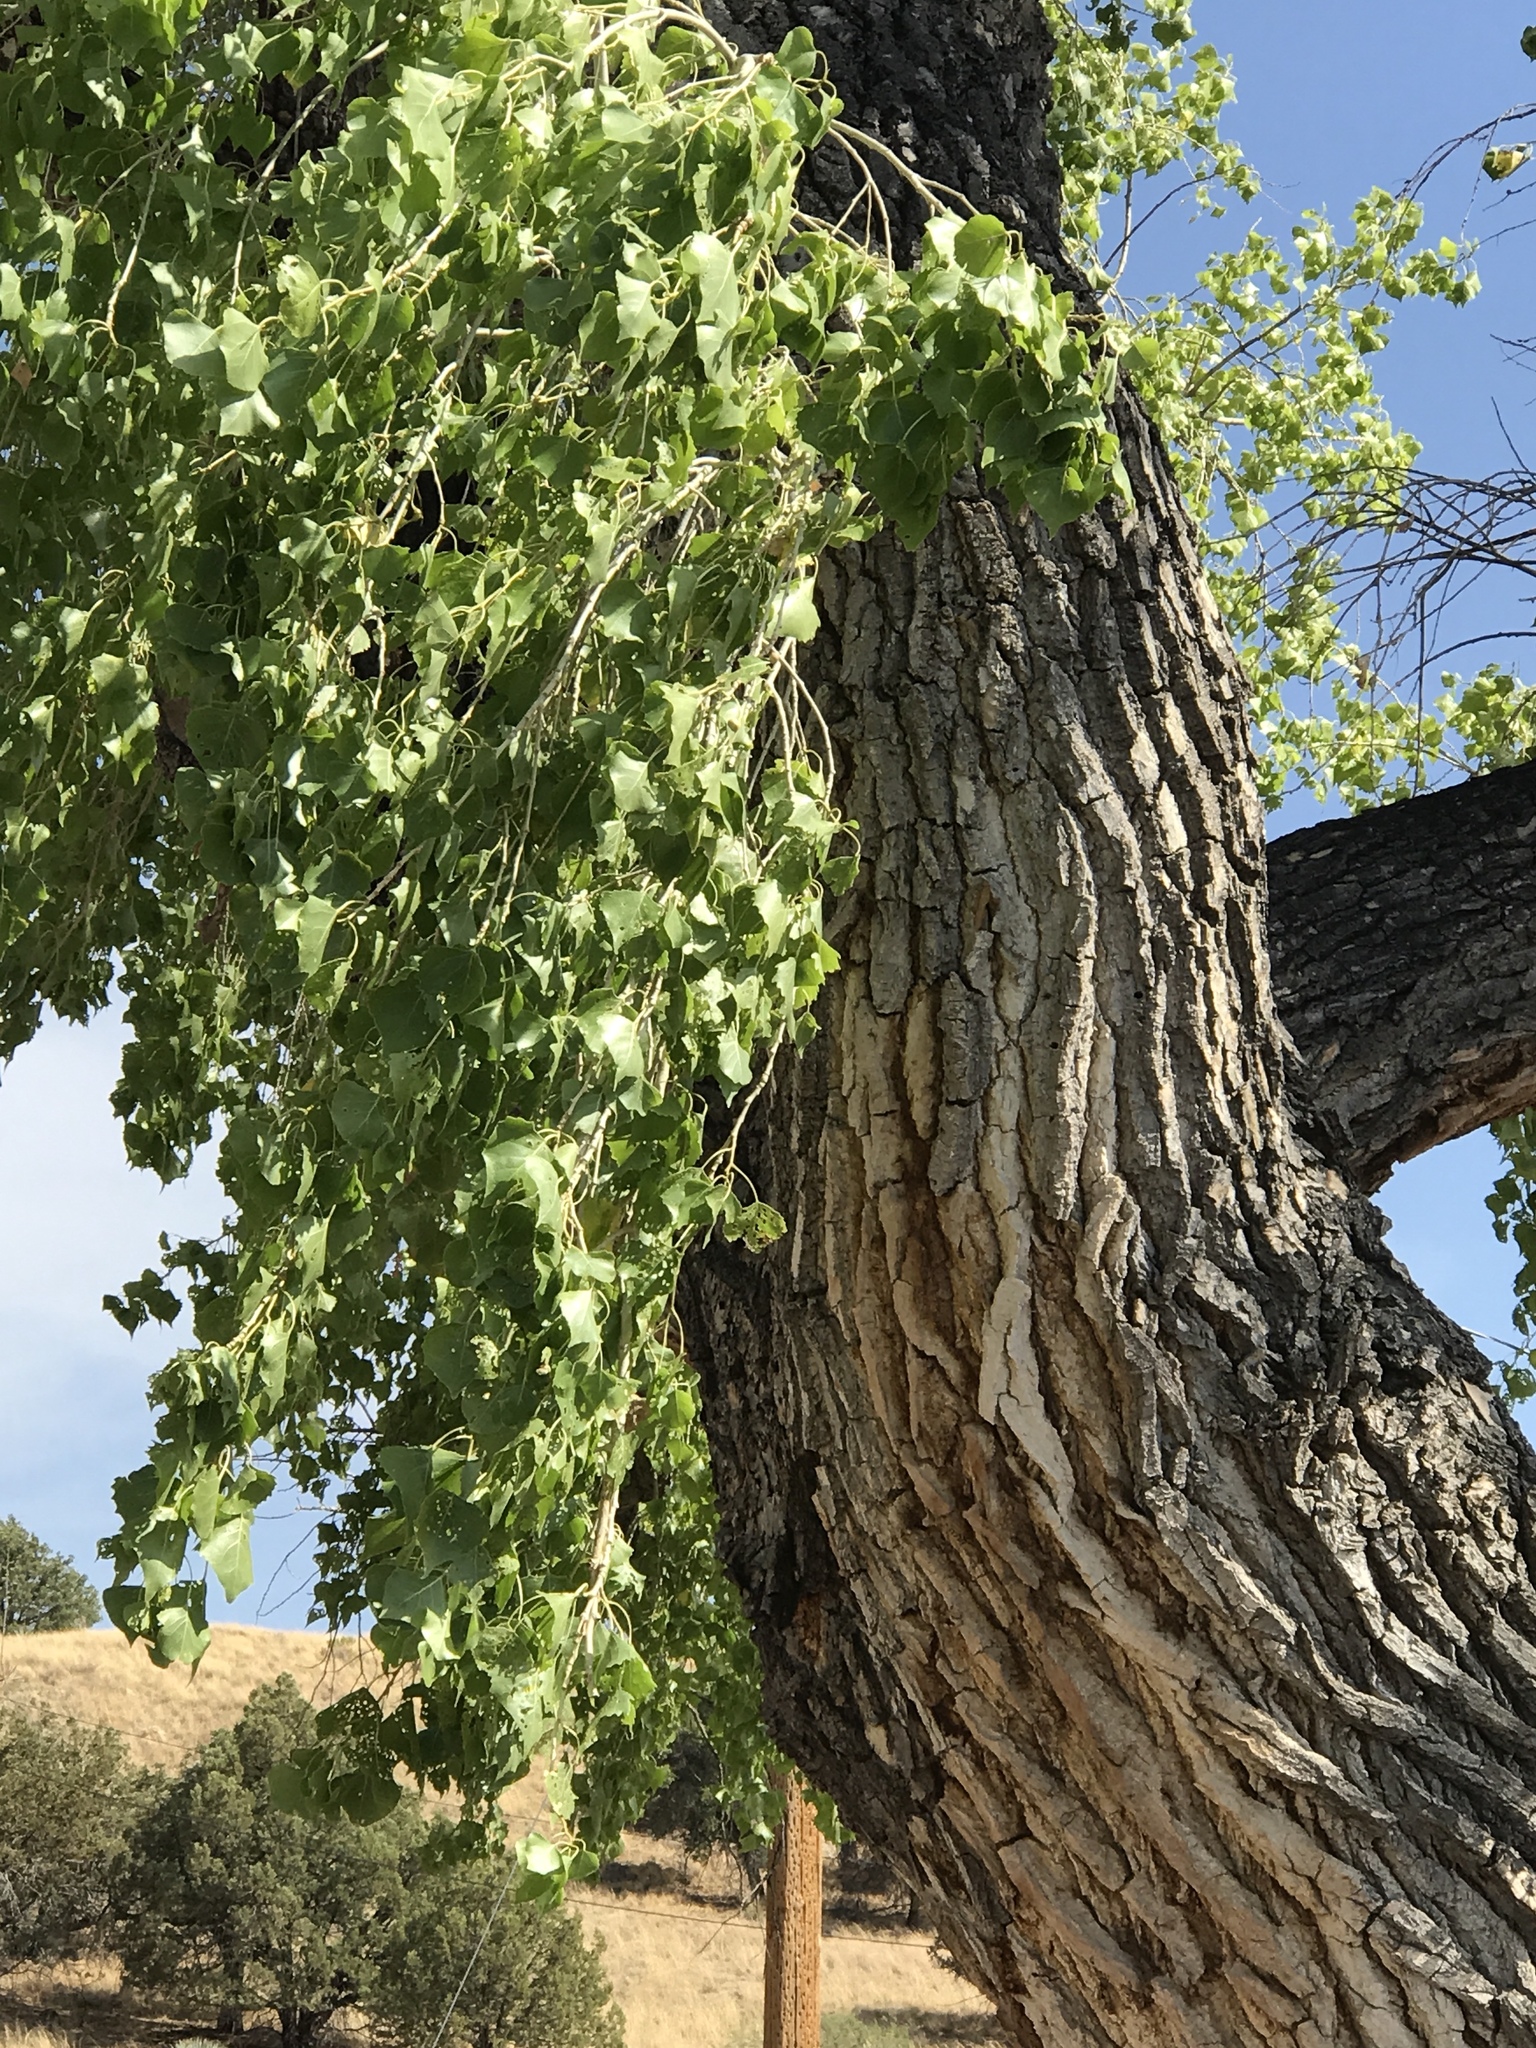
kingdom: Plantae
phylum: Tracheophyta
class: Magnoliopsida
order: Malpighiales
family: Salicaceae
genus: Populus
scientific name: Populus fremontii
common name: Fremont's cottonwood
